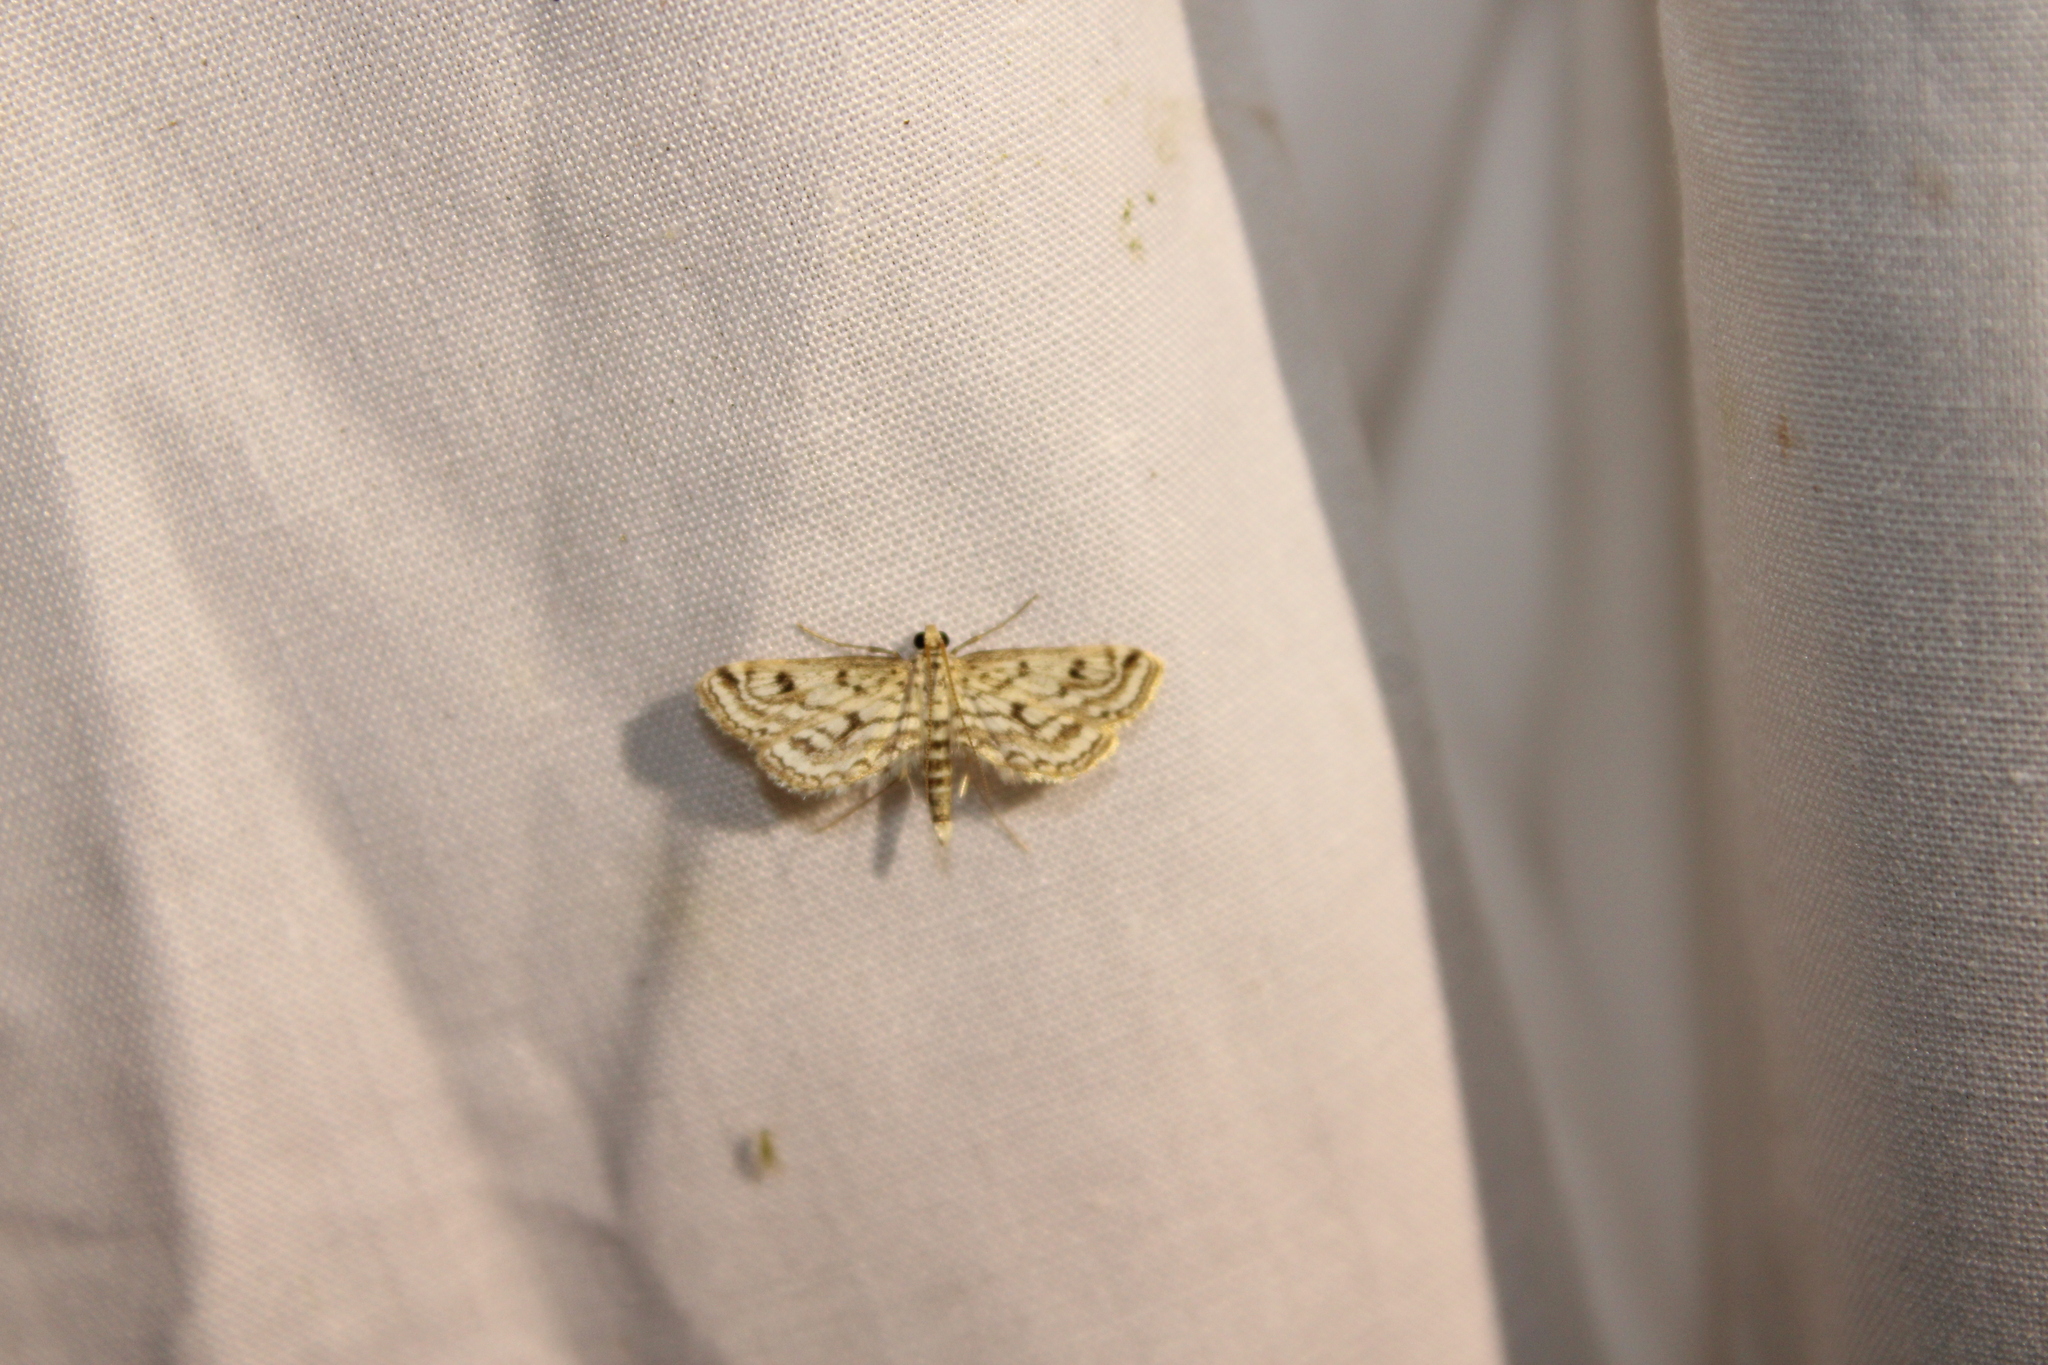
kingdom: Animalia
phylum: Arthropoda
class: Insecta
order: Lepidoptera
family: Crambidae
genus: Parapoynx
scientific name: Parapoynx allionealis
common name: Bladderwort casemaker
